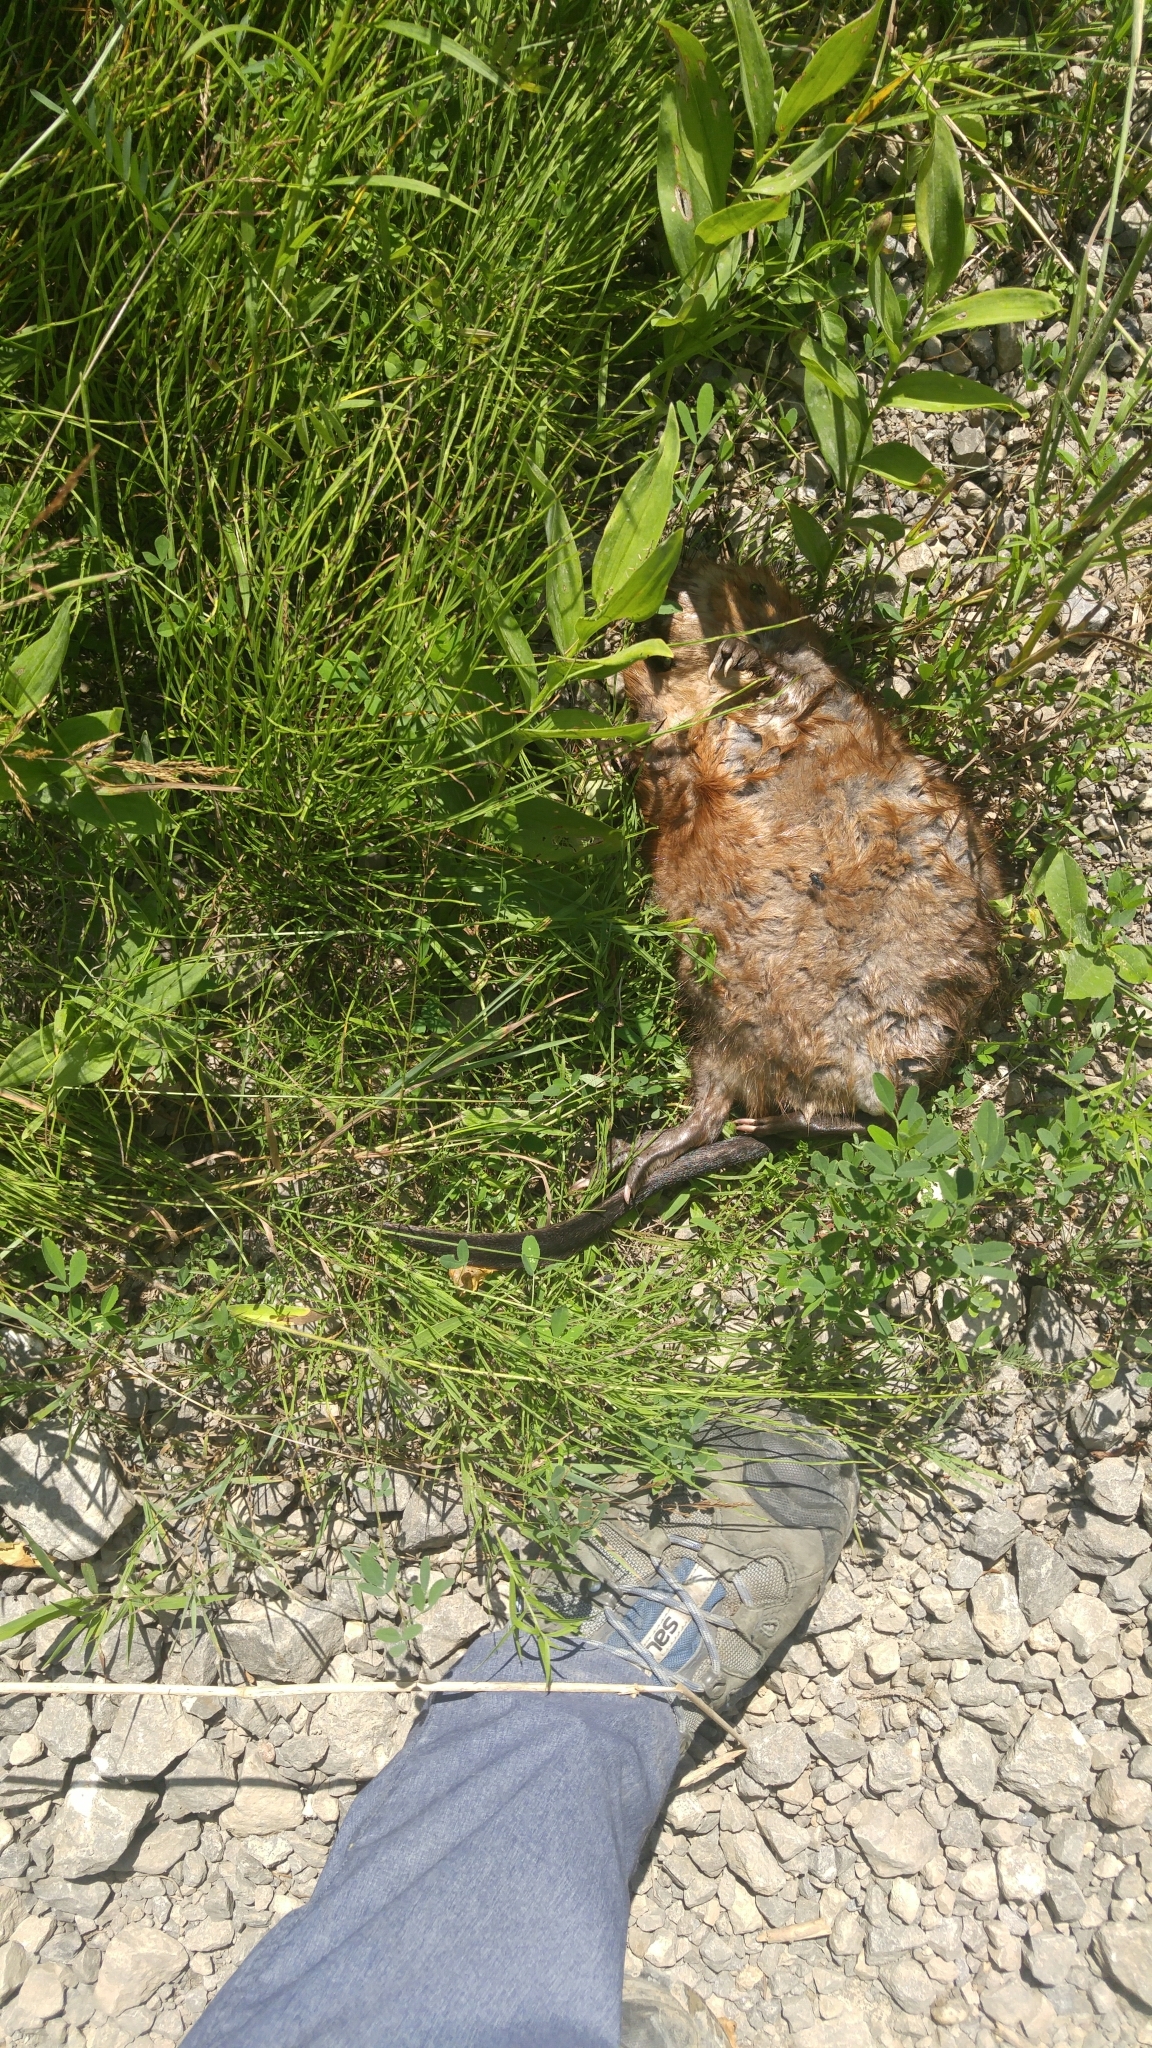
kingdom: Animalia
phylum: Chordata
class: Mammalia
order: Rodentia
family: Cricetidae
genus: Ondatra
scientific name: Ondatra zibethicus
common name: Muskrat
